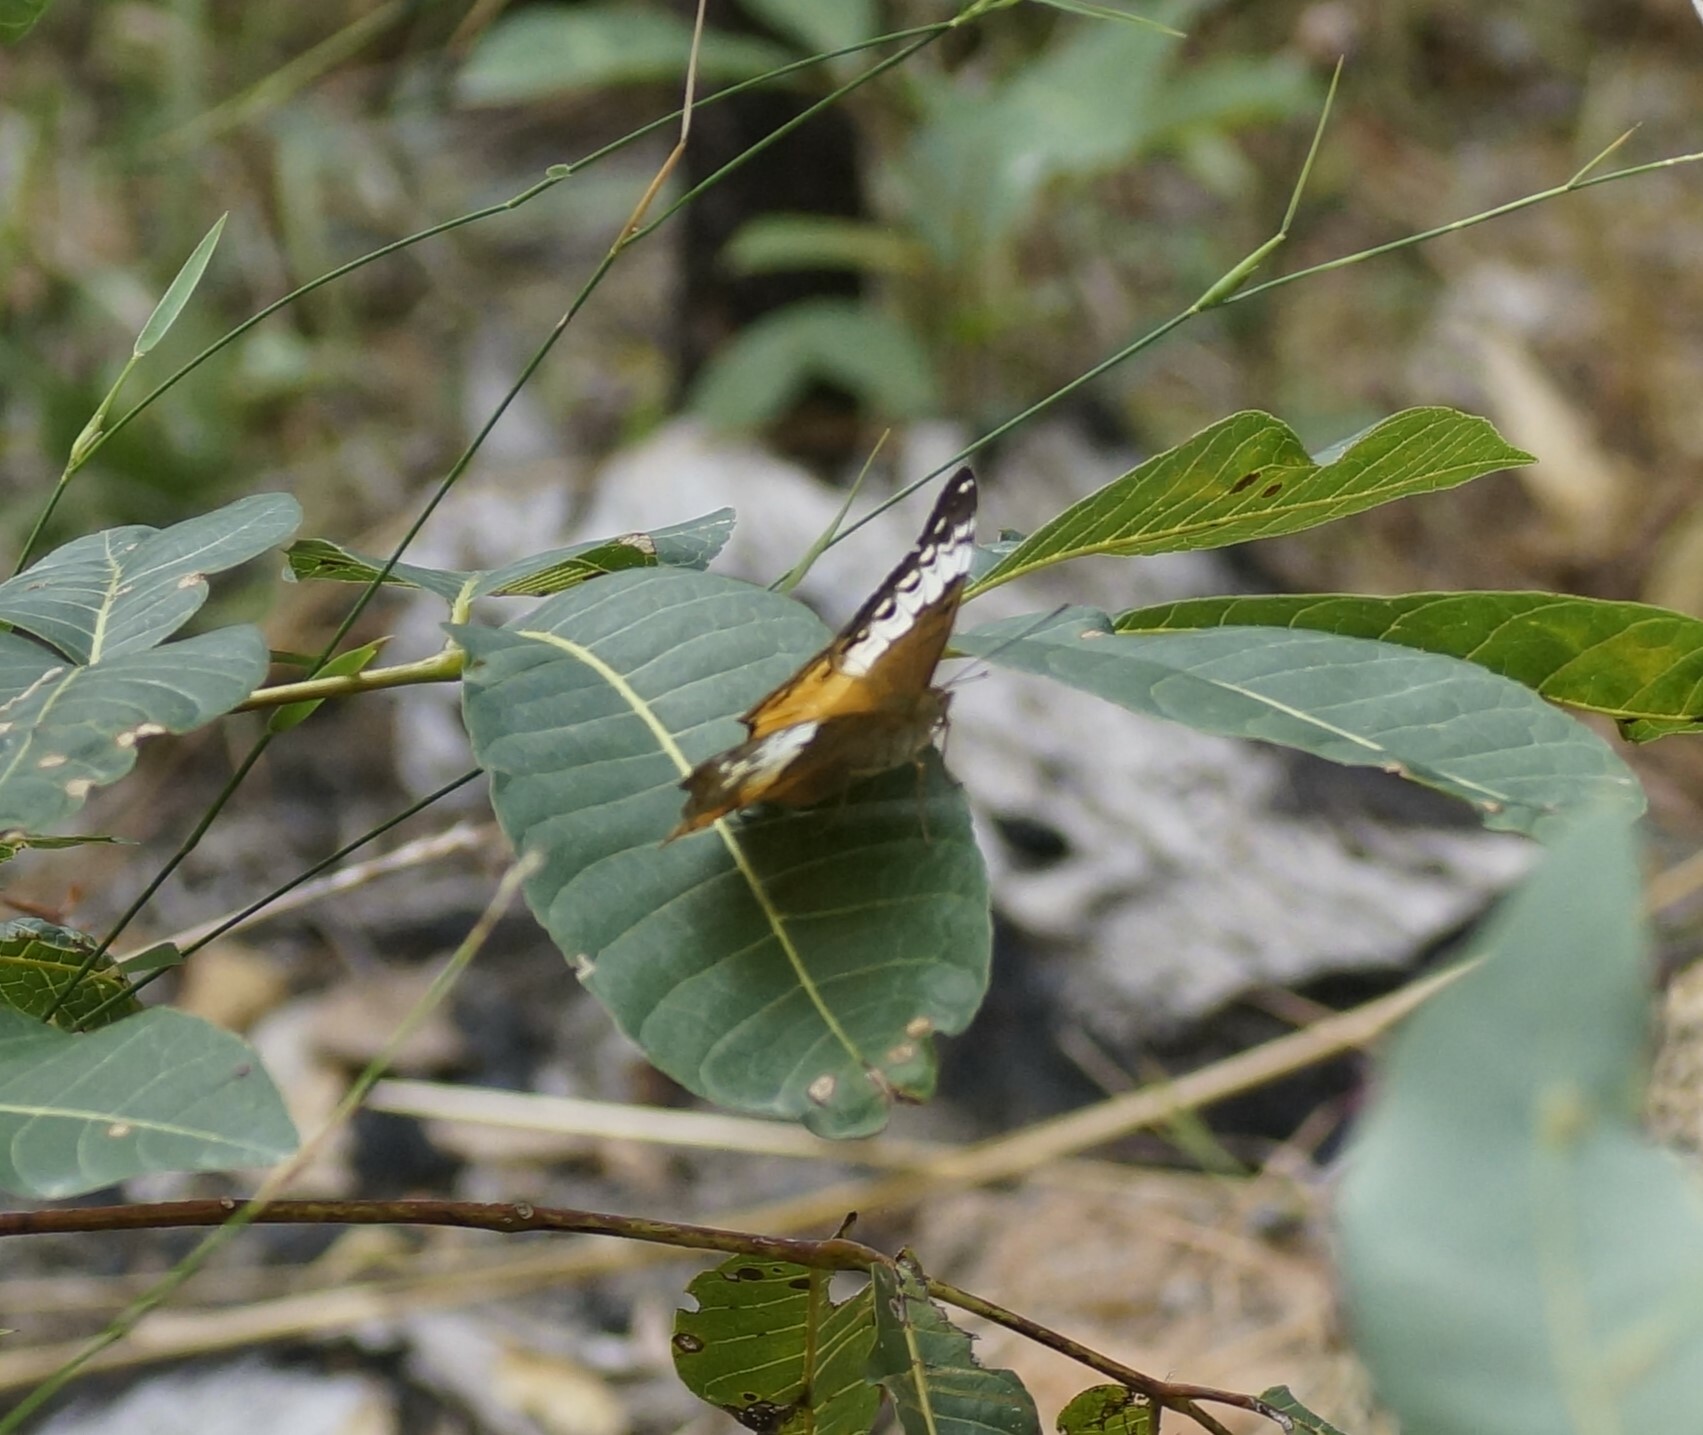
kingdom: Animalia
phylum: Arthropoda
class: Insecta
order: Lepidoptera
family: Nymphalidae
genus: Vindula
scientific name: Vindula arsinoe
